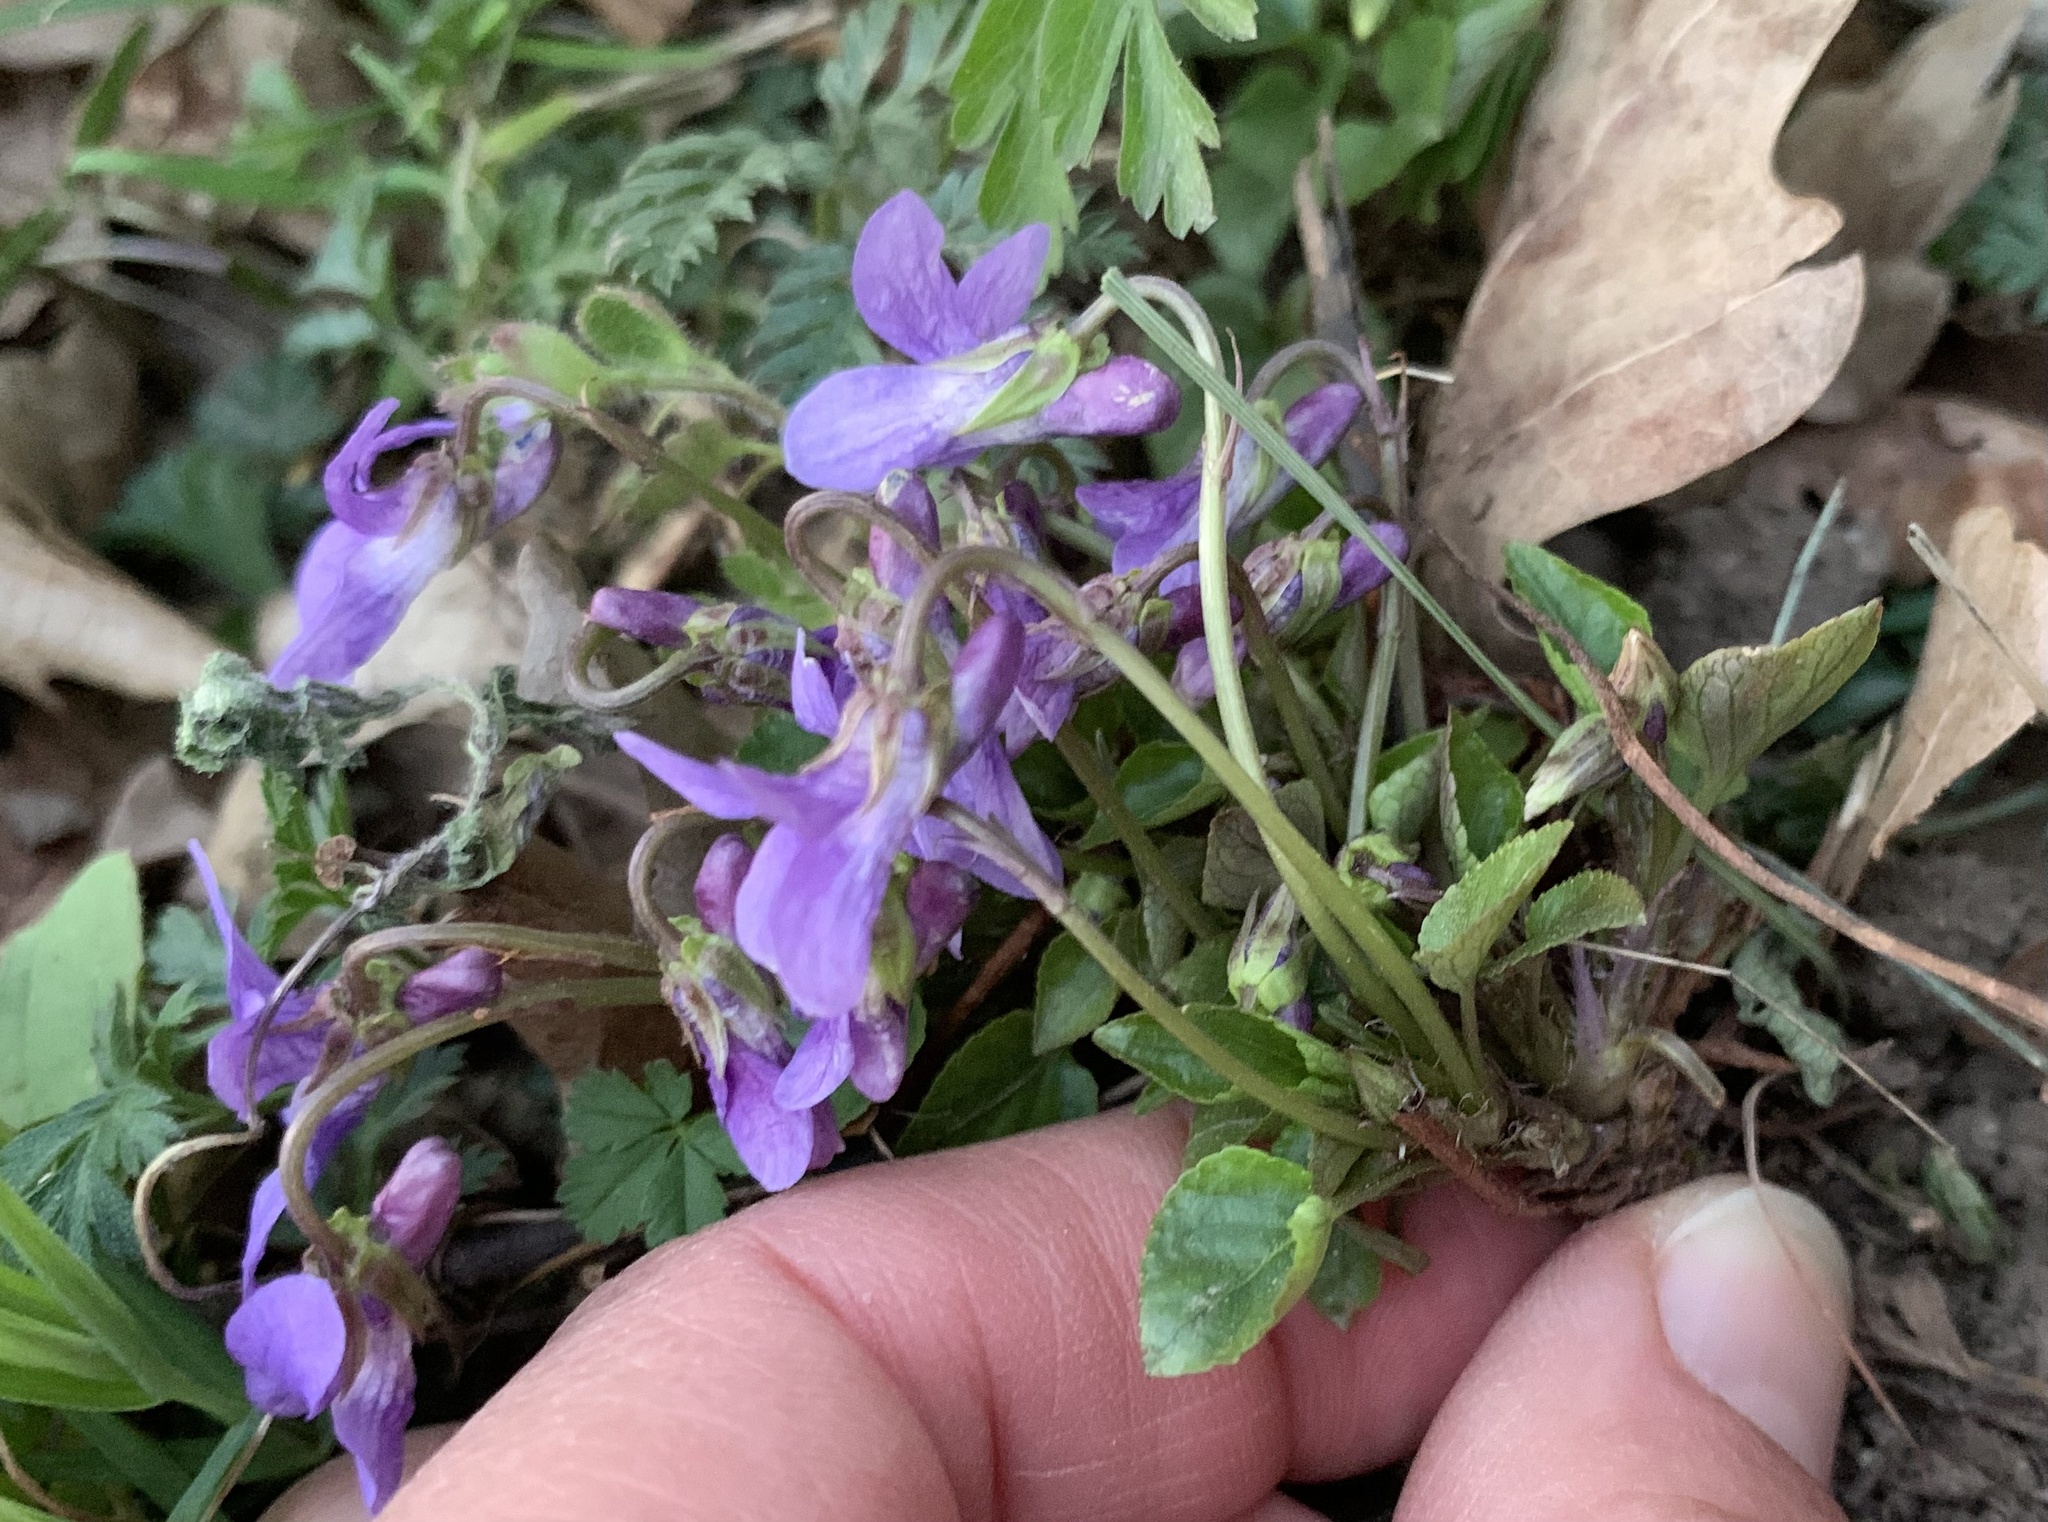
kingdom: Plantae
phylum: Tracheophyta
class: Magnoliopsida
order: Malpighiales
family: Violaceae
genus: Viola
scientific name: Viola reichenbachiana
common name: Early dog-violet
